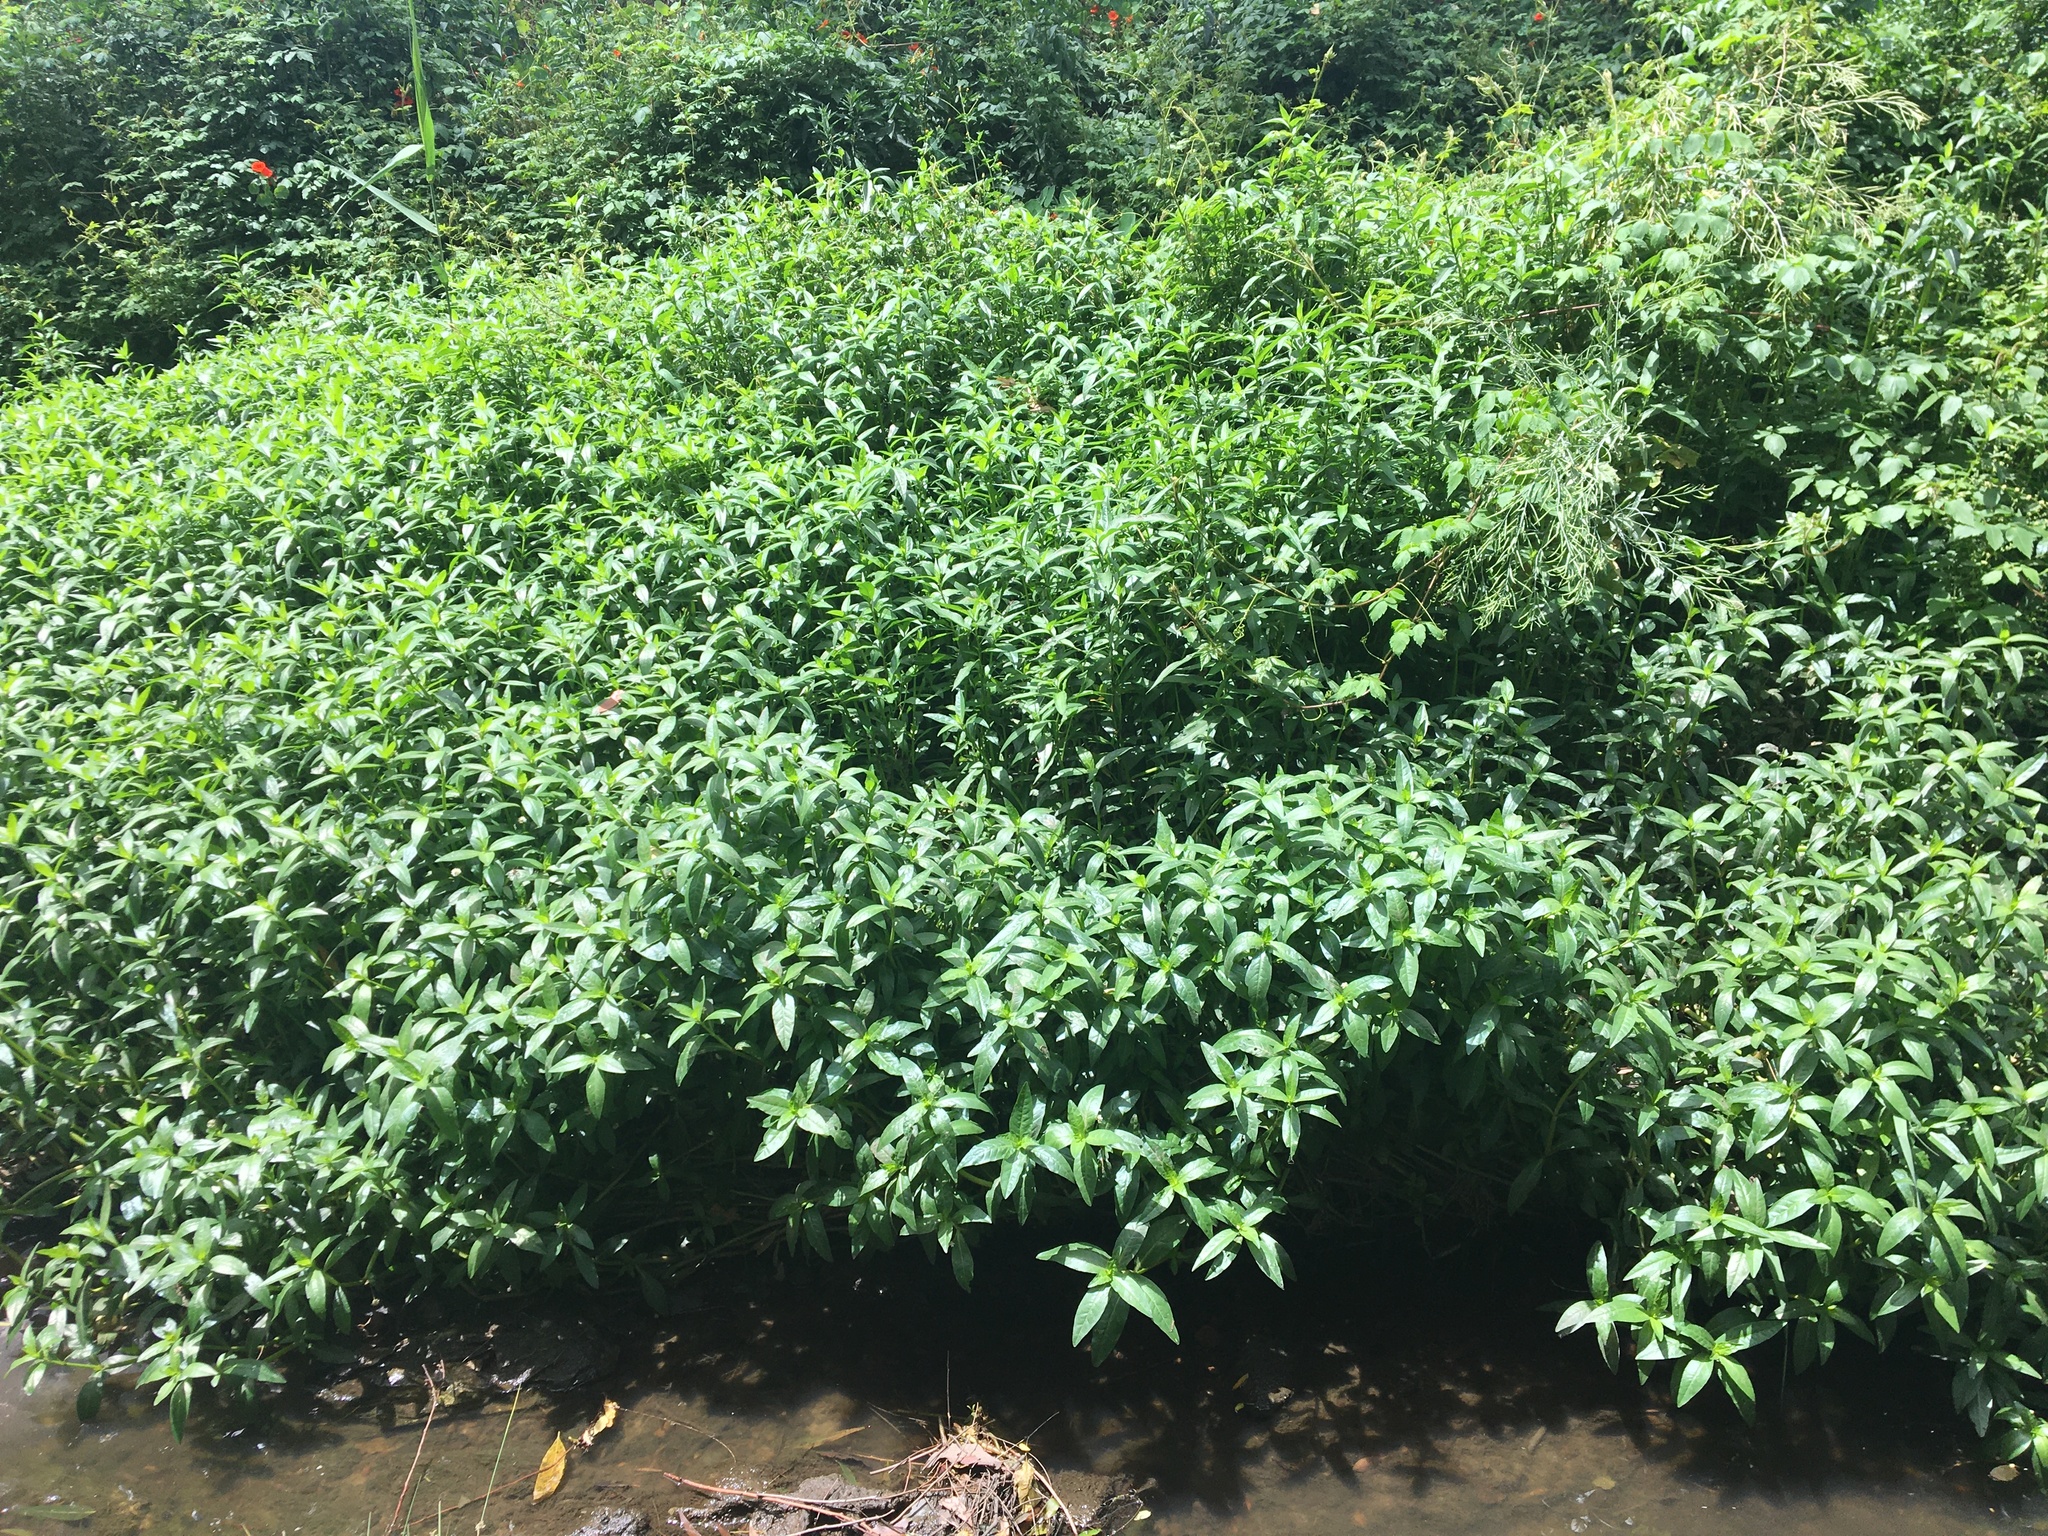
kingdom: Plantae
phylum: Tracheophyta
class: Magnoliopsida
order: Caryophyllales
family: Amaranthaceae
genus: Alternanthera
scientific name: Alternanthera philoxeroides
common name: Alligatorweed
